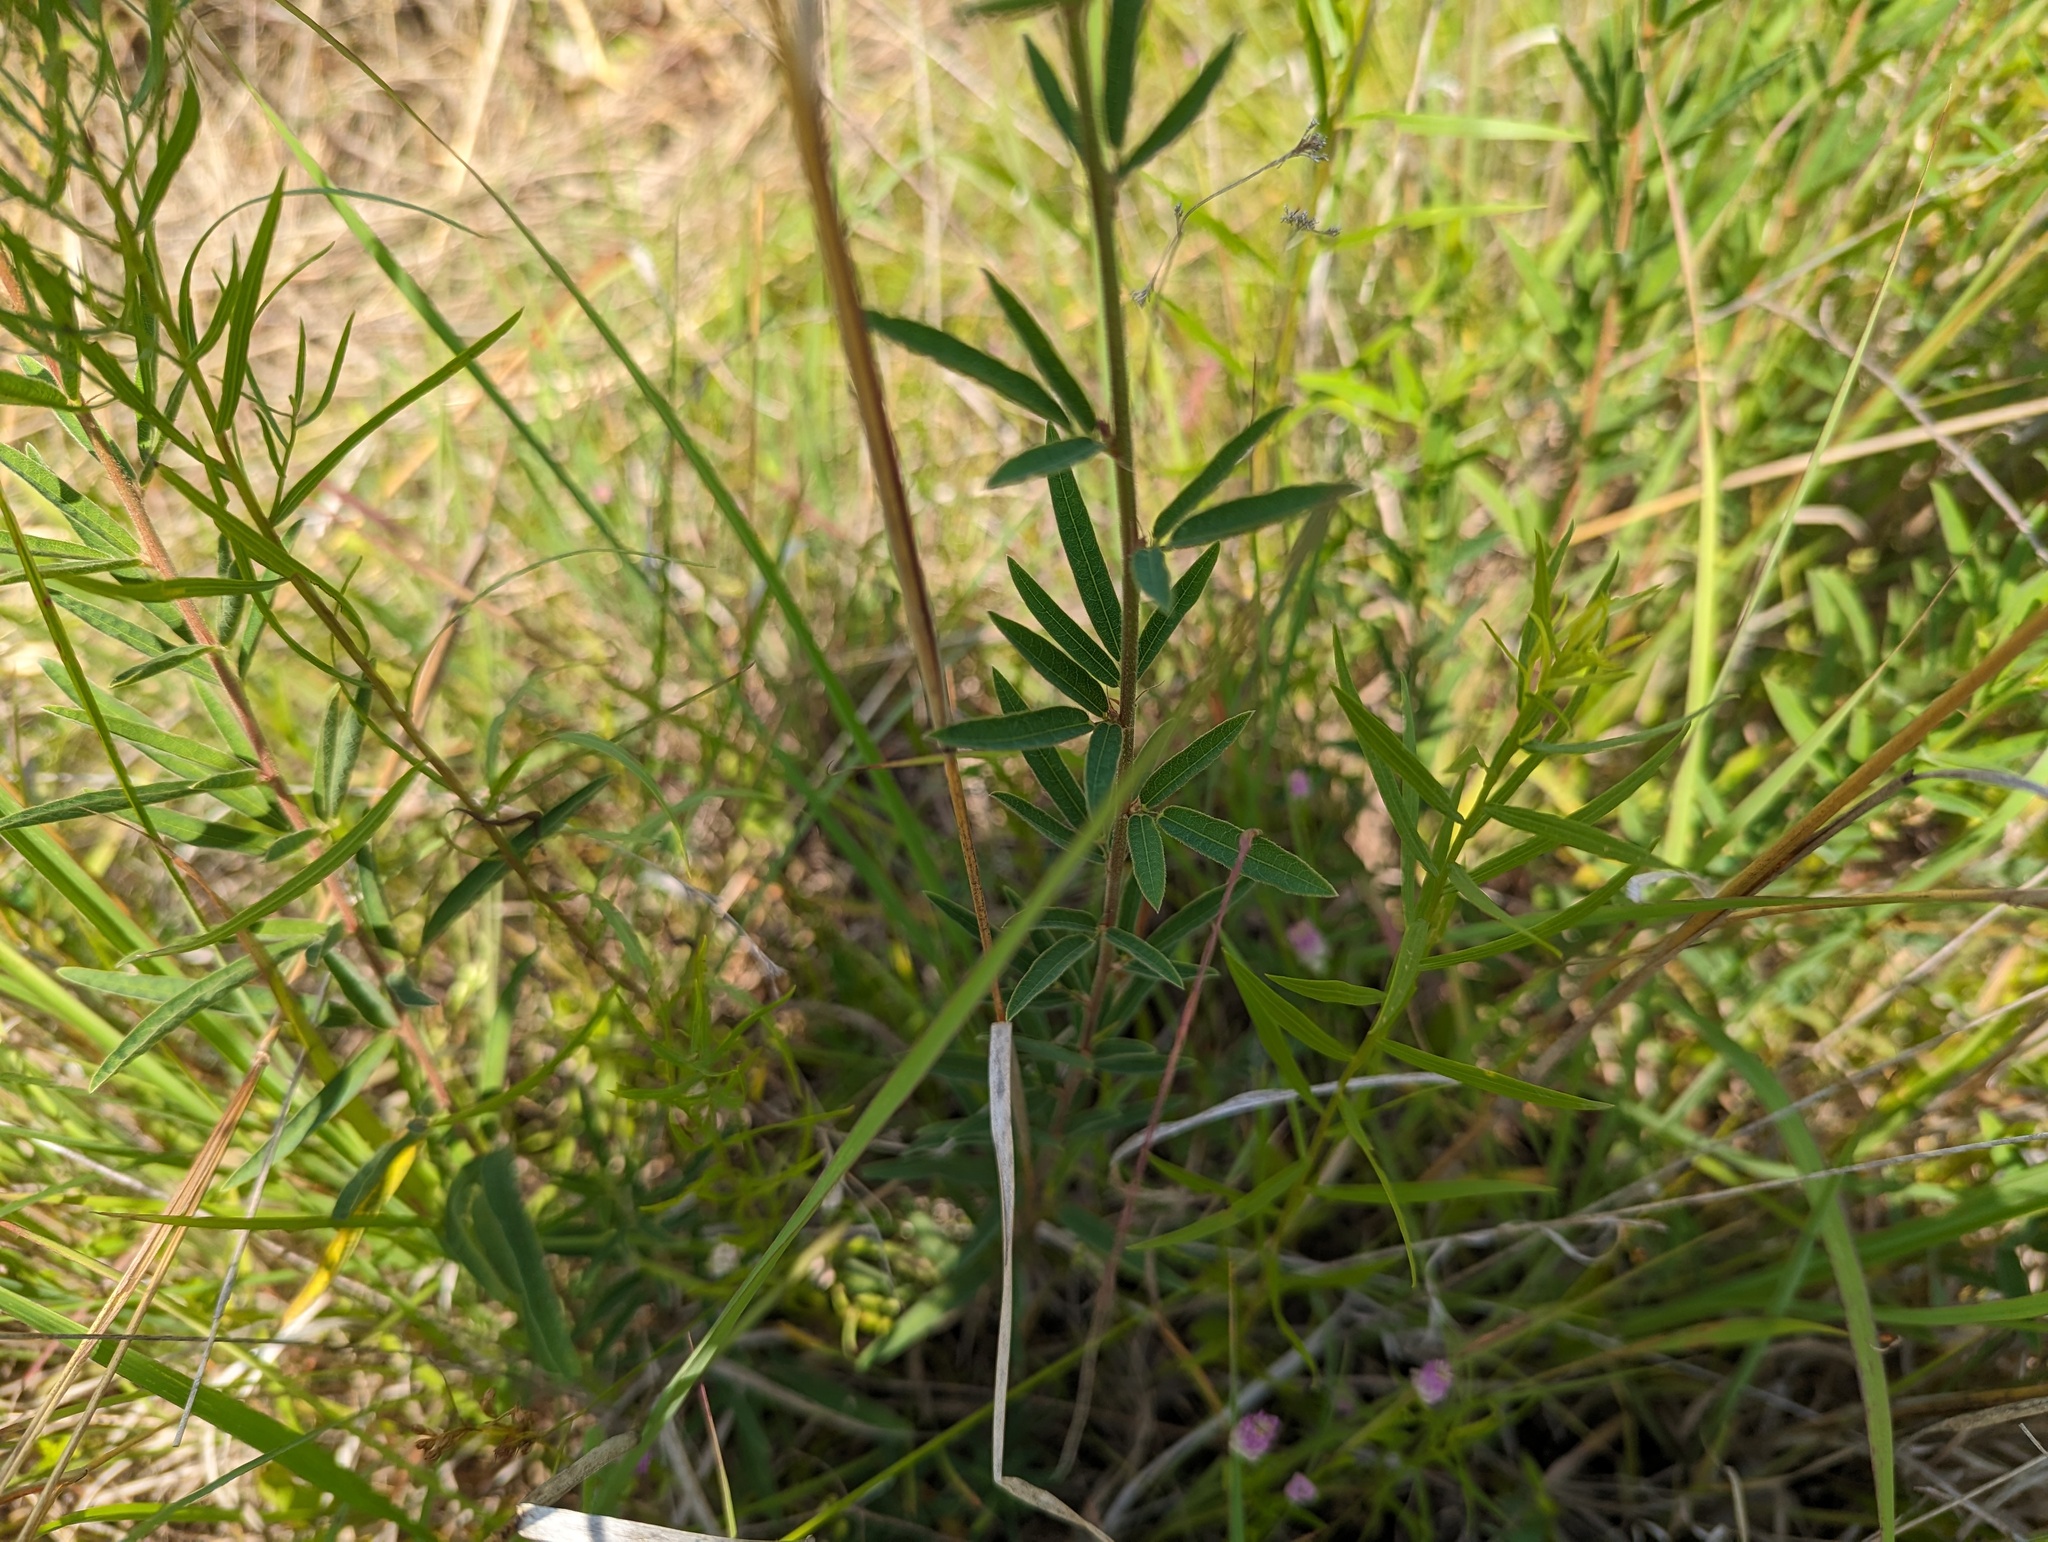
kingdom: Plantae
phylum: Tracheophyta
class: Magnoliopsida
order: Fabales
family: Fabaceae
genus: Desmodium
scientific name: Desmodium sessilifolium
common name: Sessile tick-clover
